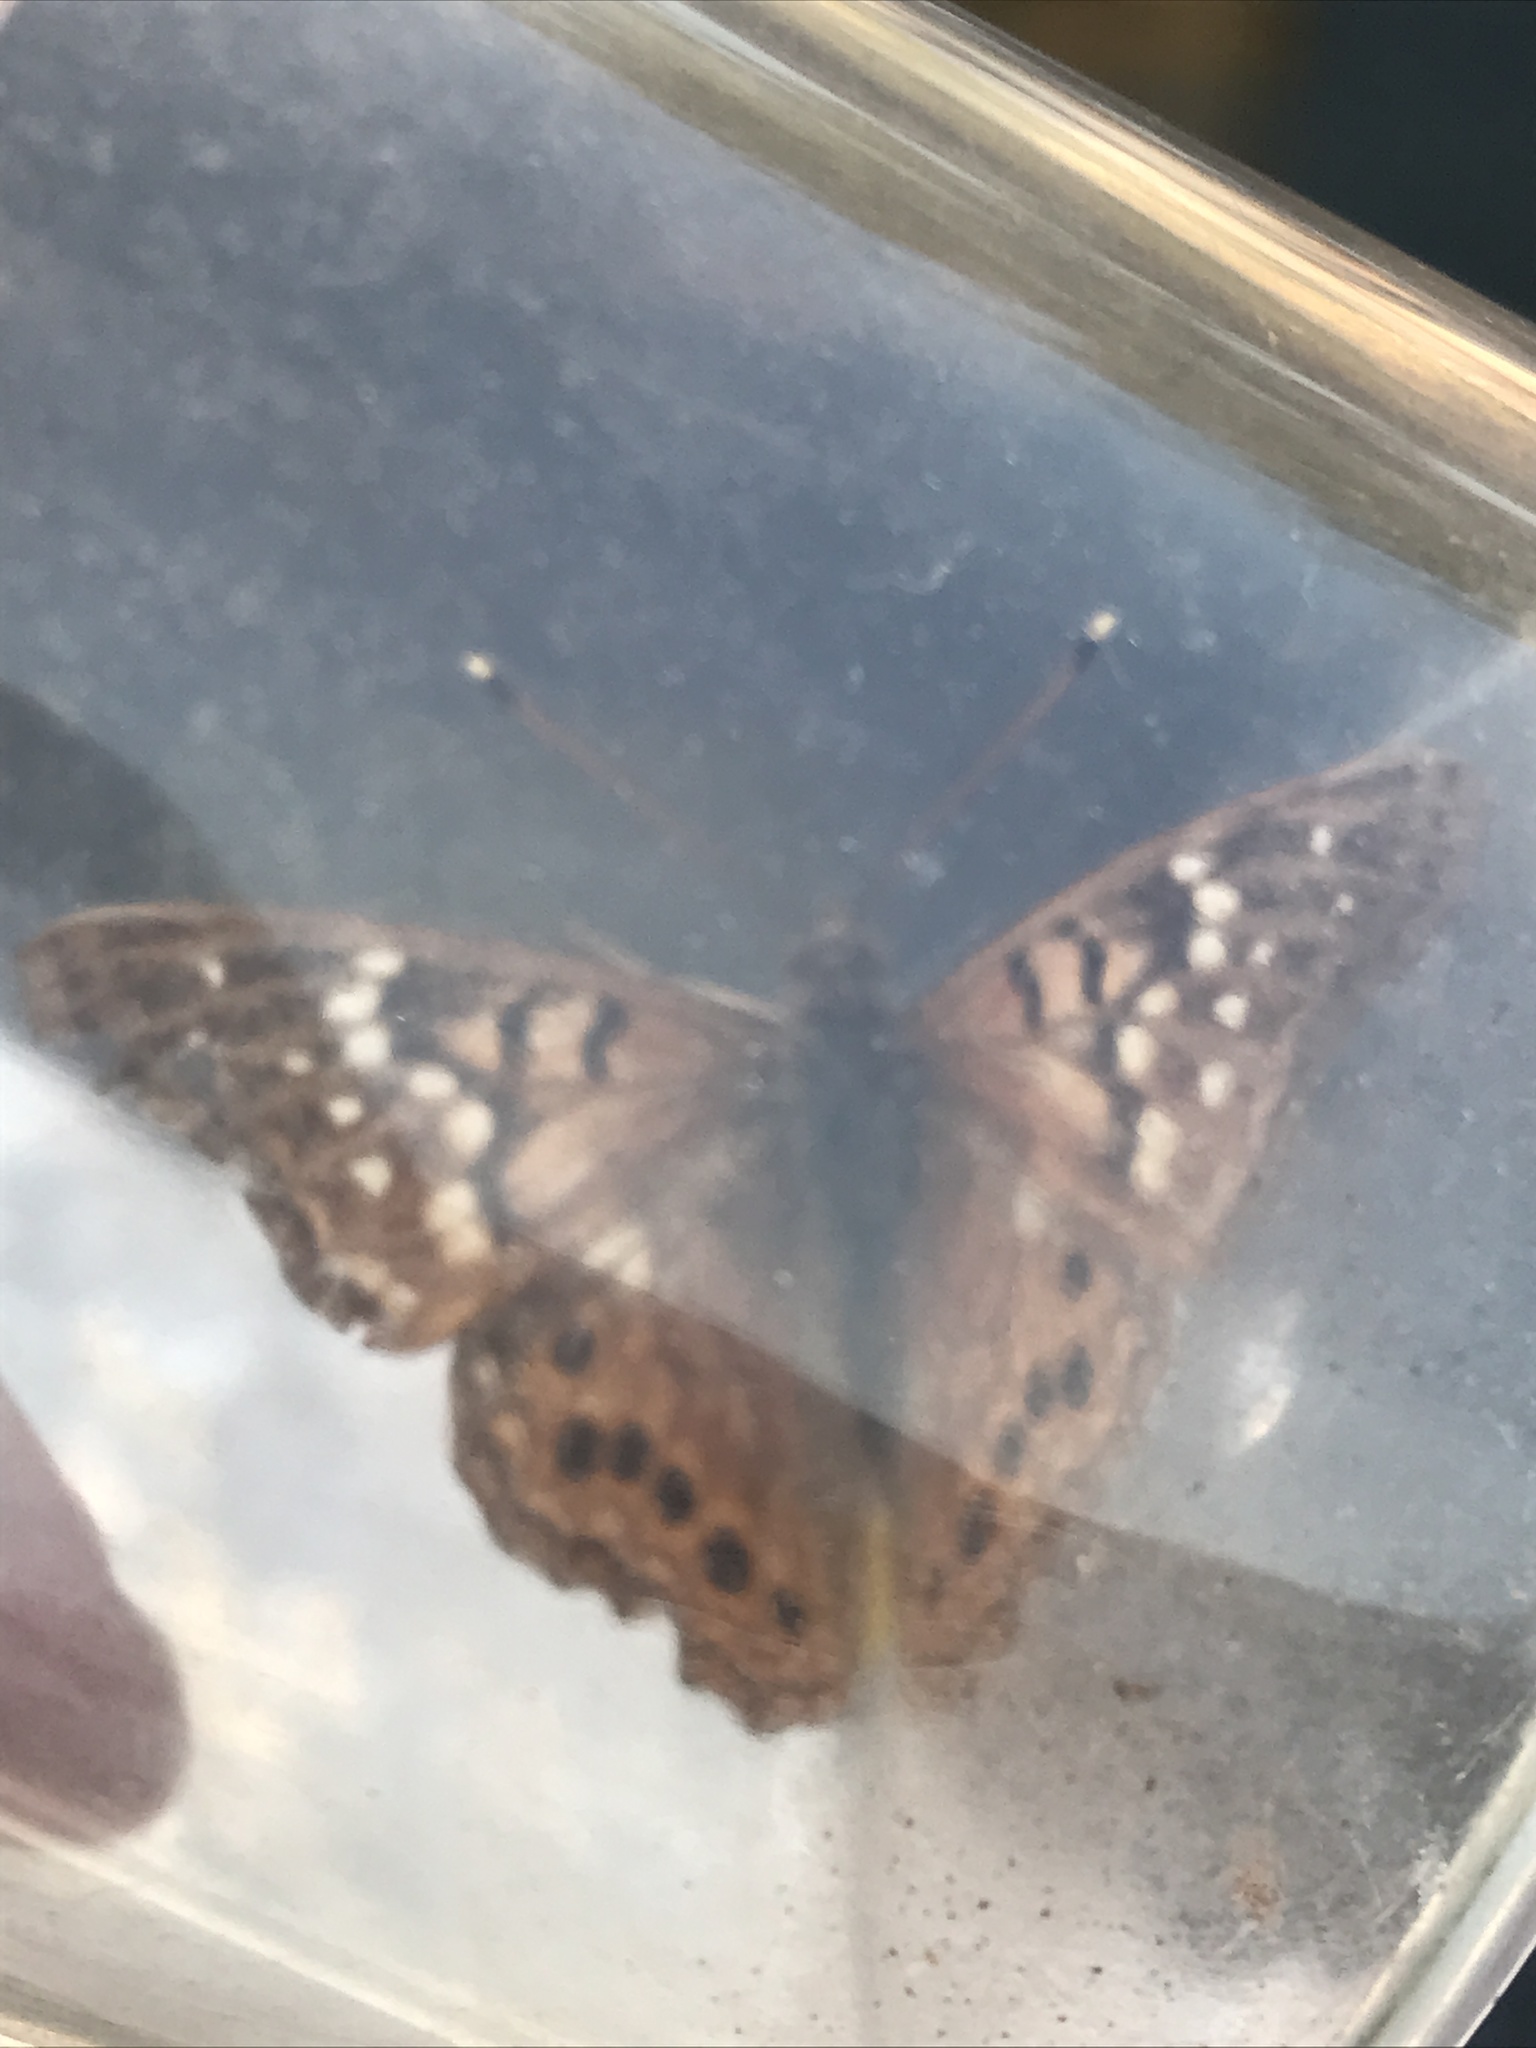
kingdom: Animalia
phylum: Arthropoda
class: Insecta
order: Lepidoptera
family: Nymphalidae
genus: Asterocampa
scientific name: Asterocampa clyton
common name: Tawny emperor
